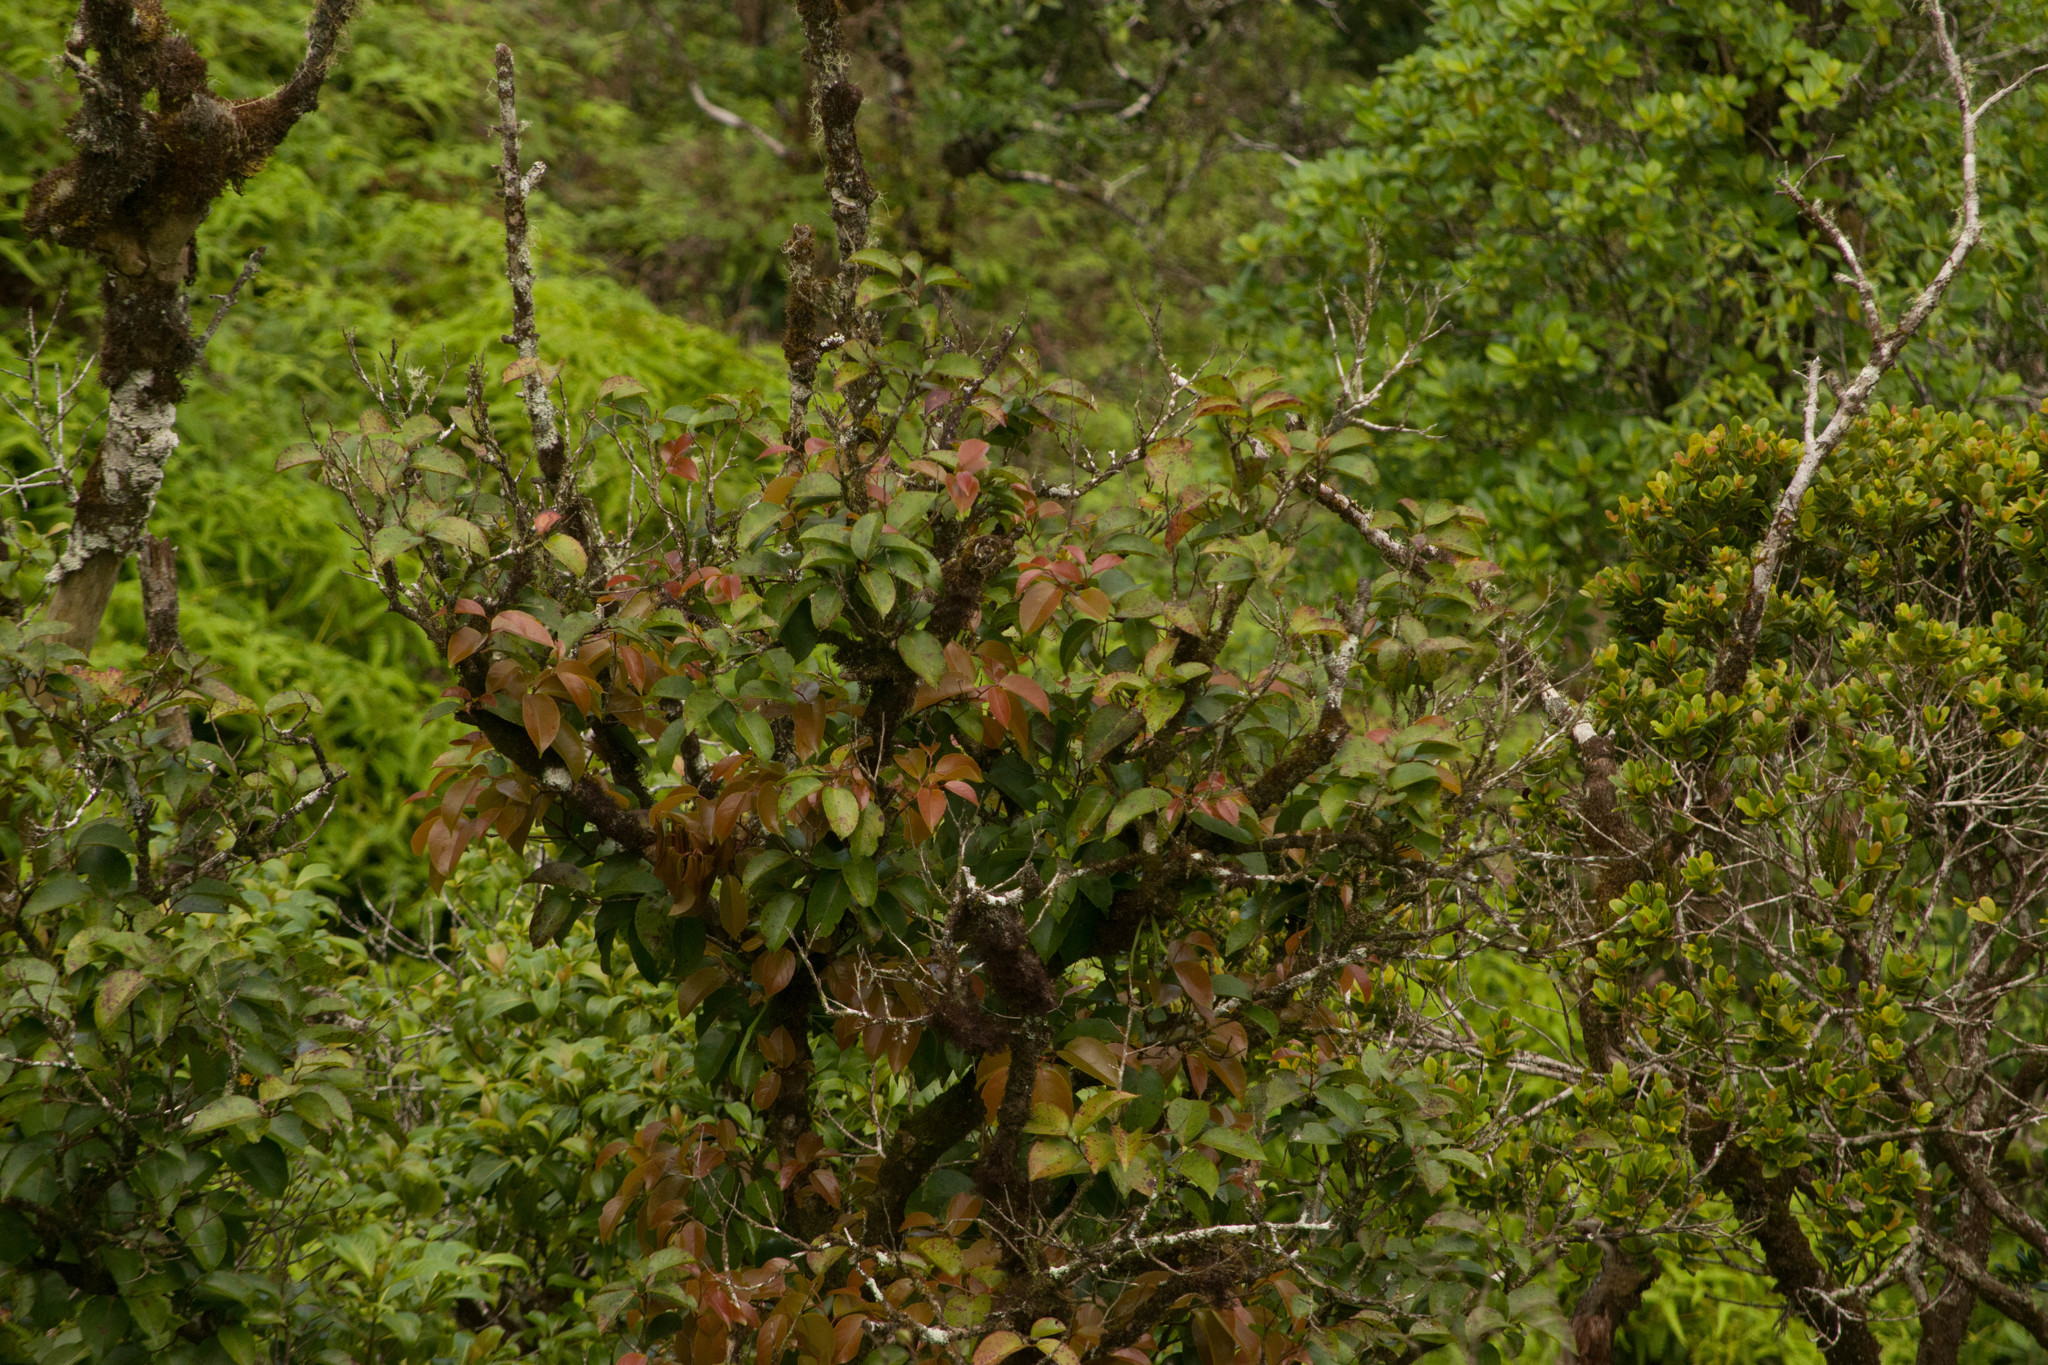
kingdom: Plantae
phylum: Tracheophyta
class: Magnoliopsida
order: Malpighiales
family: Phyllanthaceae
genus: Antidesma
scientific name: Antidesma platyphyllum
